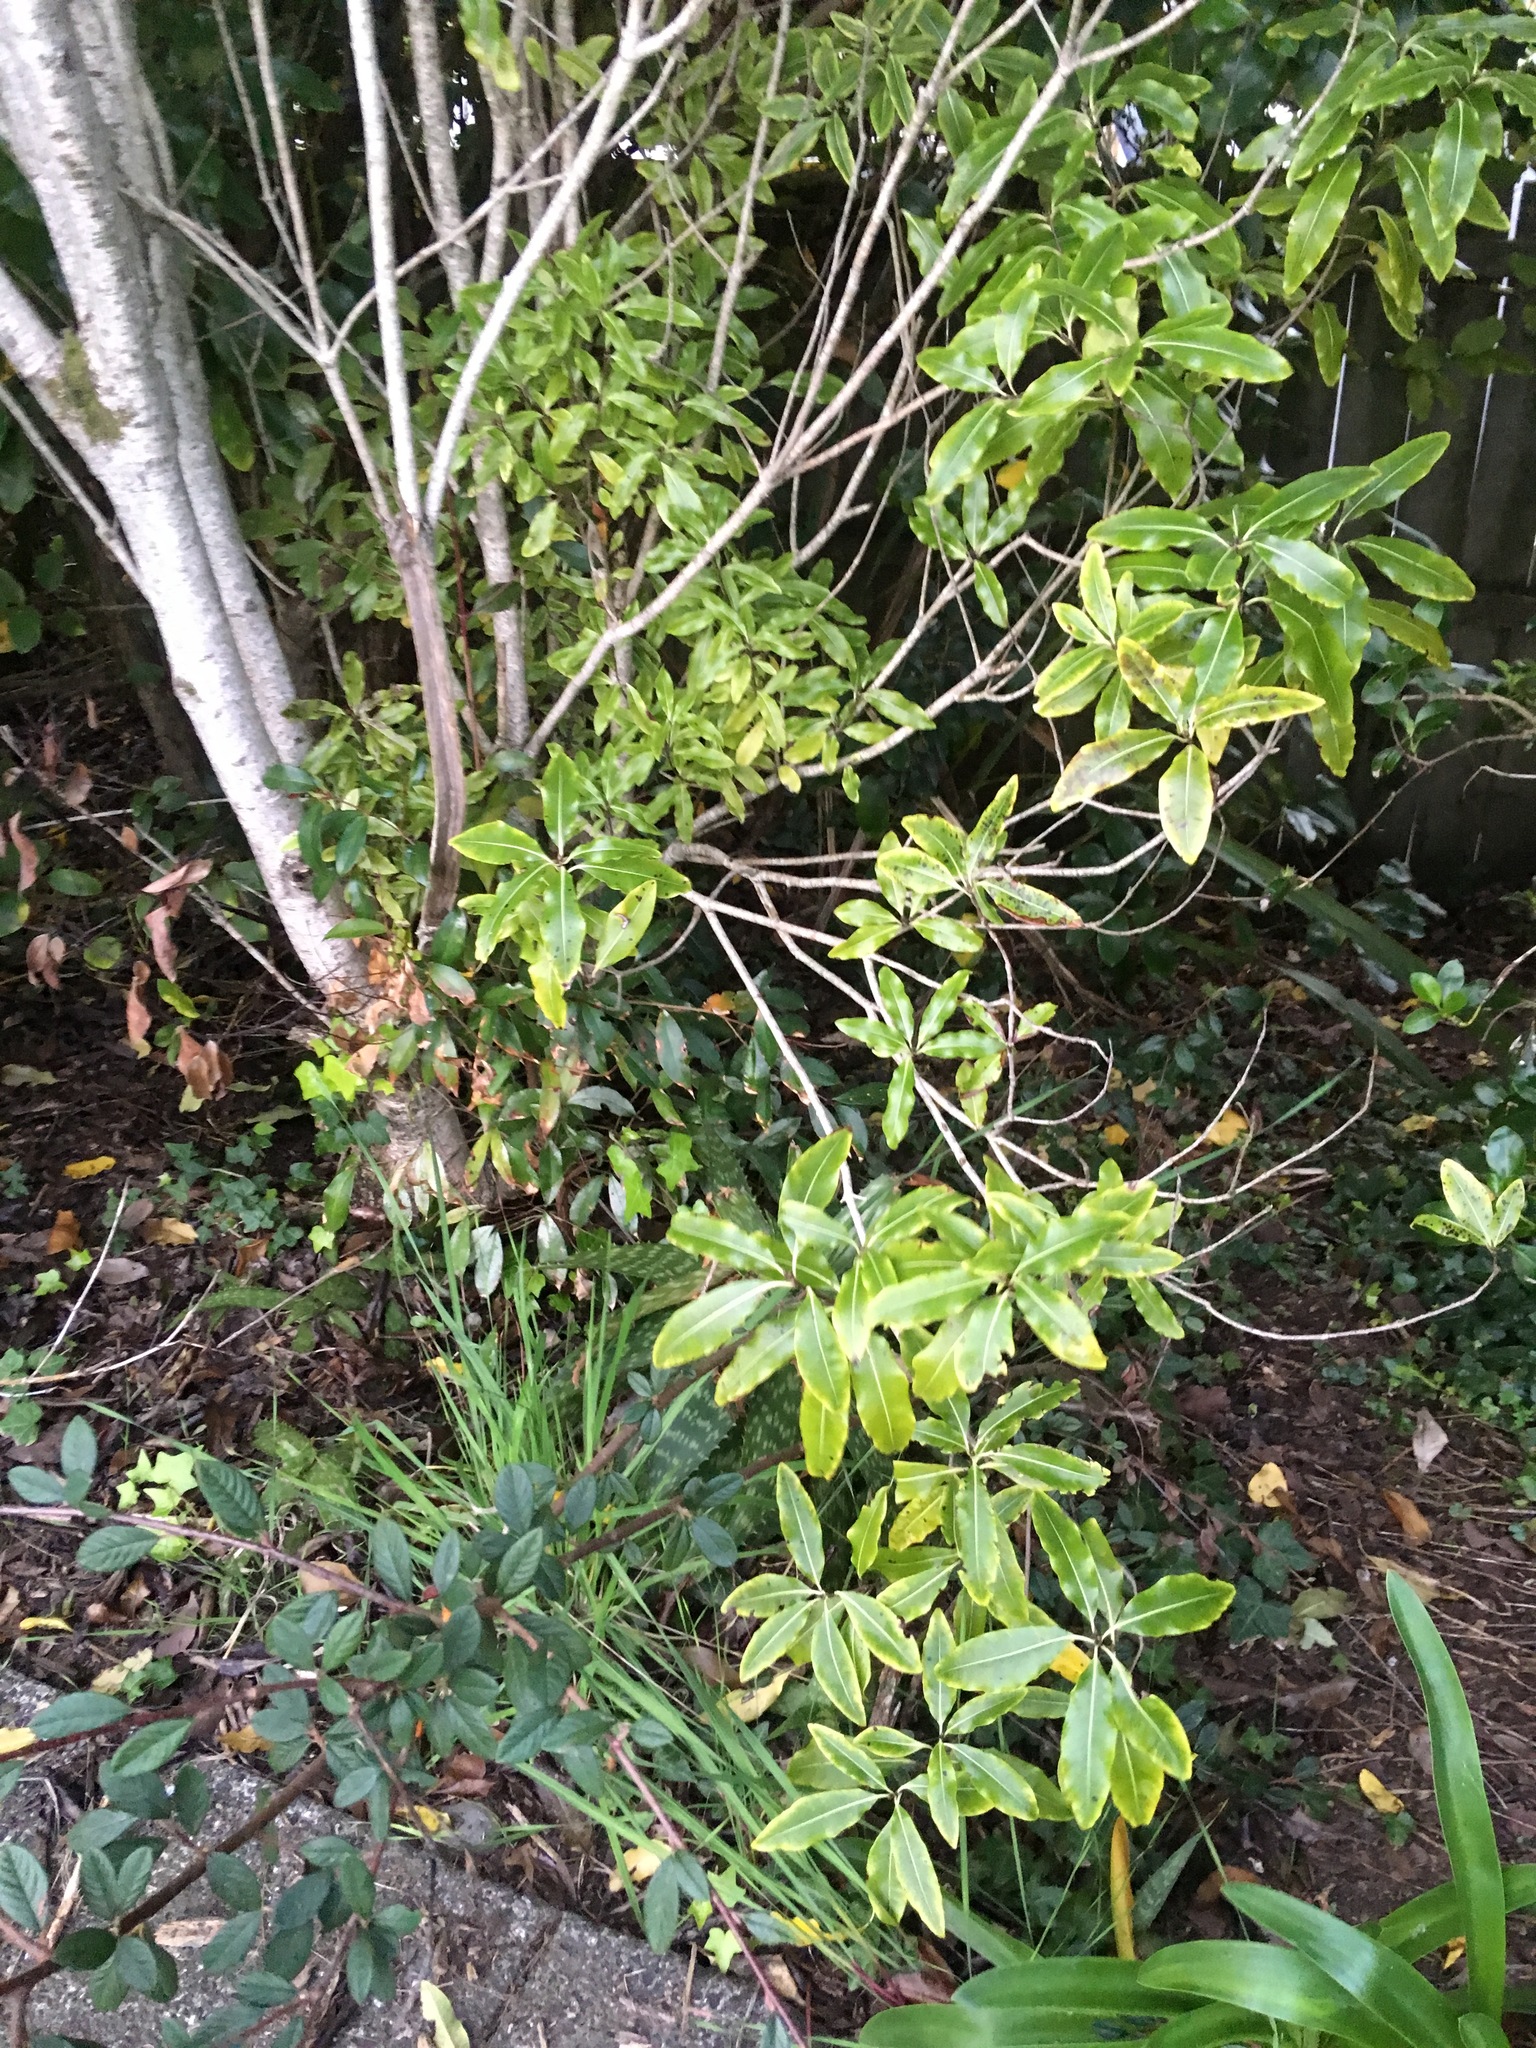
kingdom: Plantae
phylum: Tracheophyta
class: Magnoliopsida
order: Apiales
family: Pittosporaceae
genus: Pittosporum
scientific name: Pittosporum eugenioides
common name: Lemonwood
